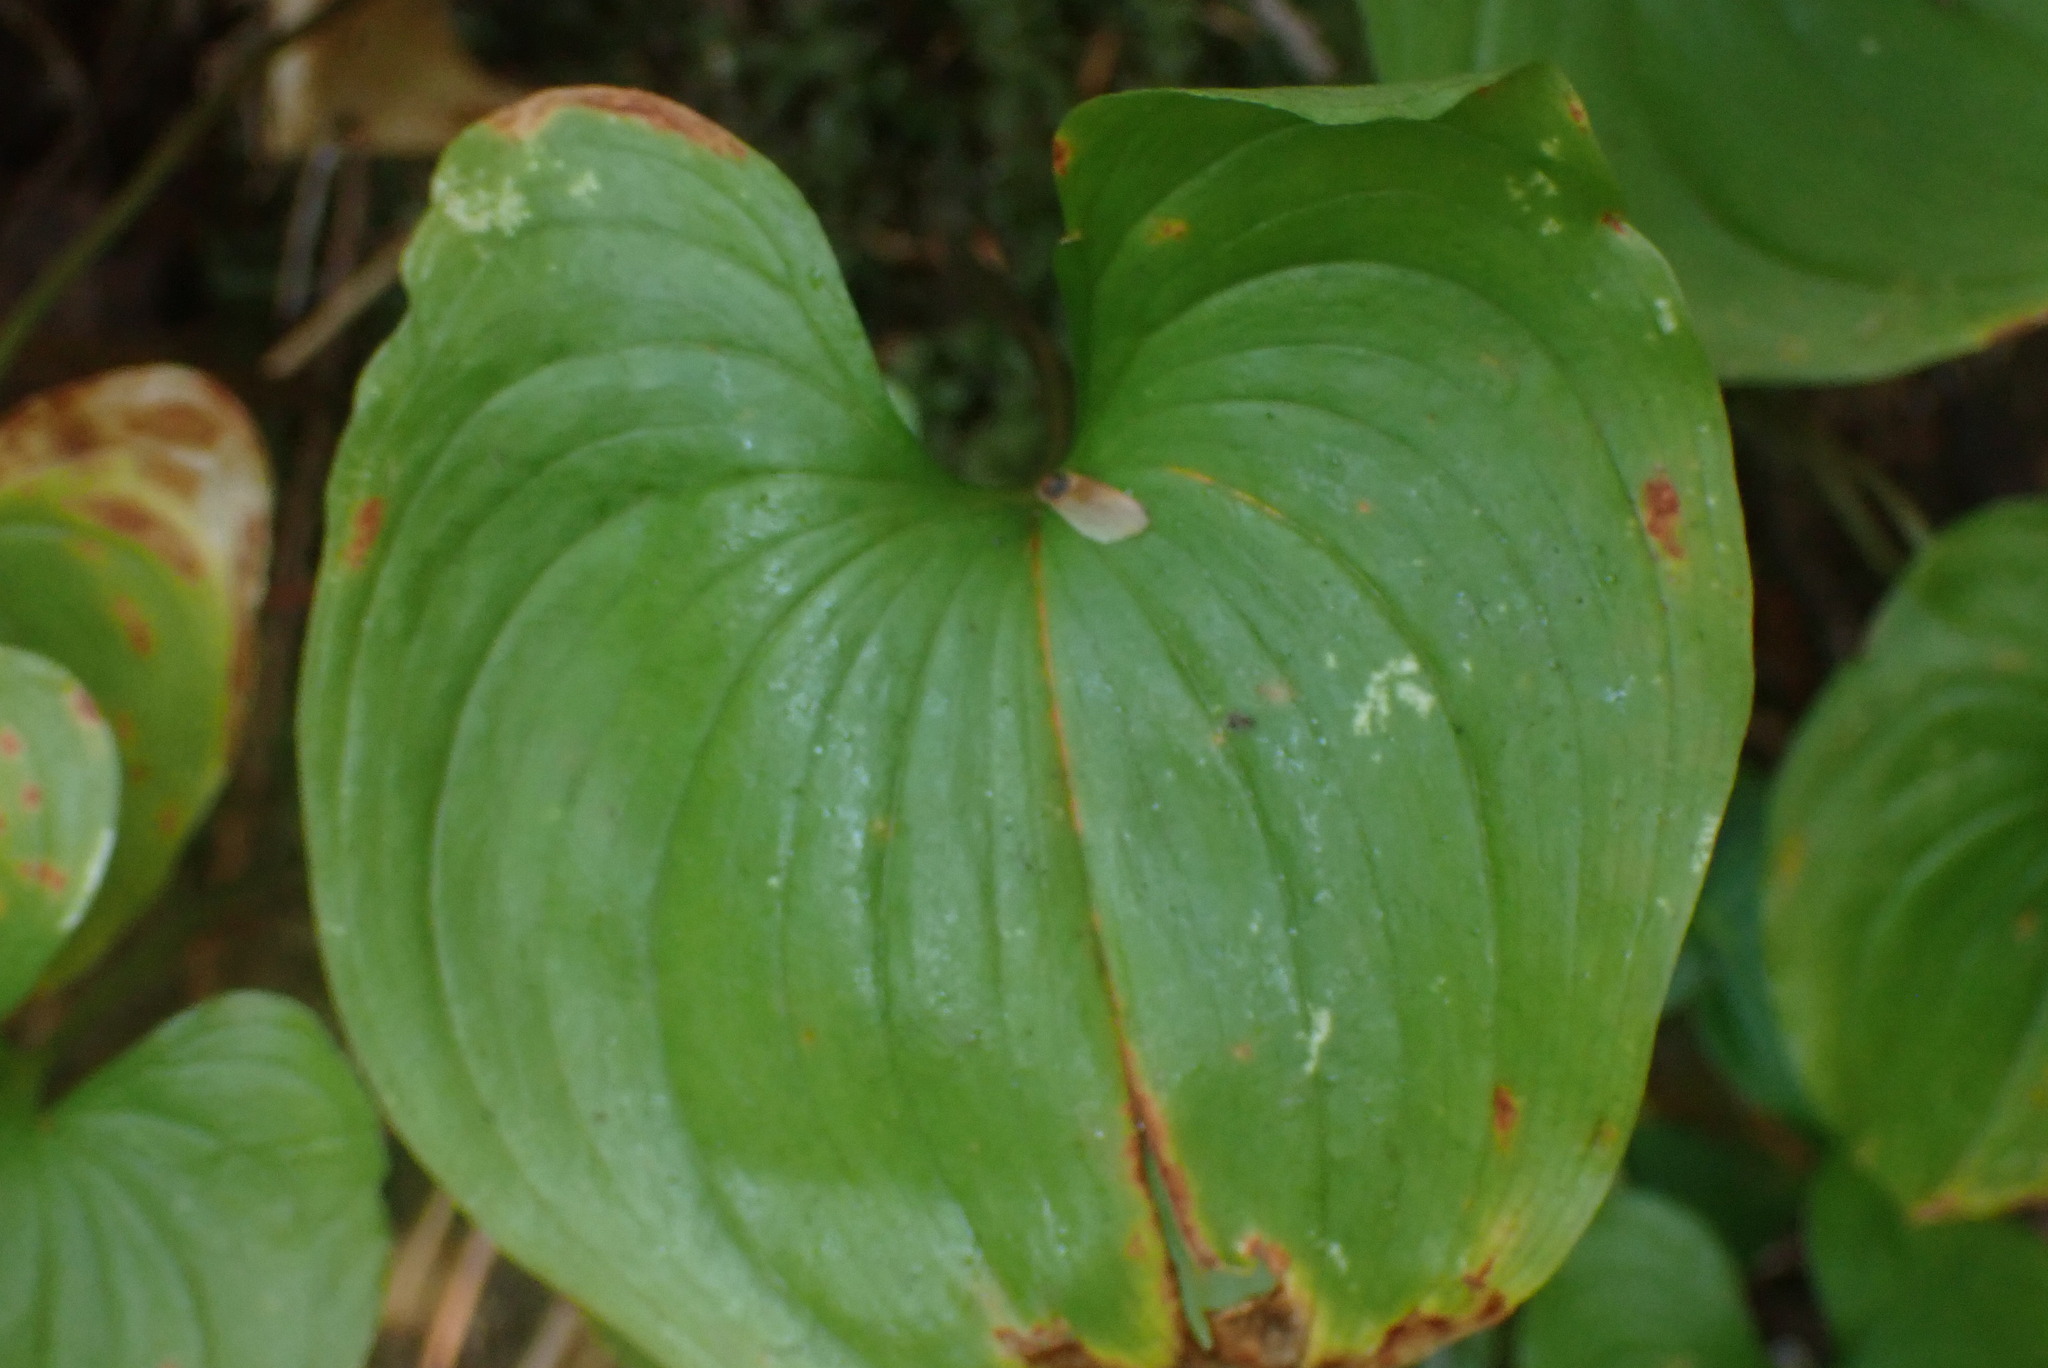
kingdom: Plantae
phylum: Tracheophyta
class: Liliopsida
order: Asparagales
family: Asparagaceae
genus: Maianthemum
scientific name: Maianthemum dilatatum
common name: False lily-of-the-valley
